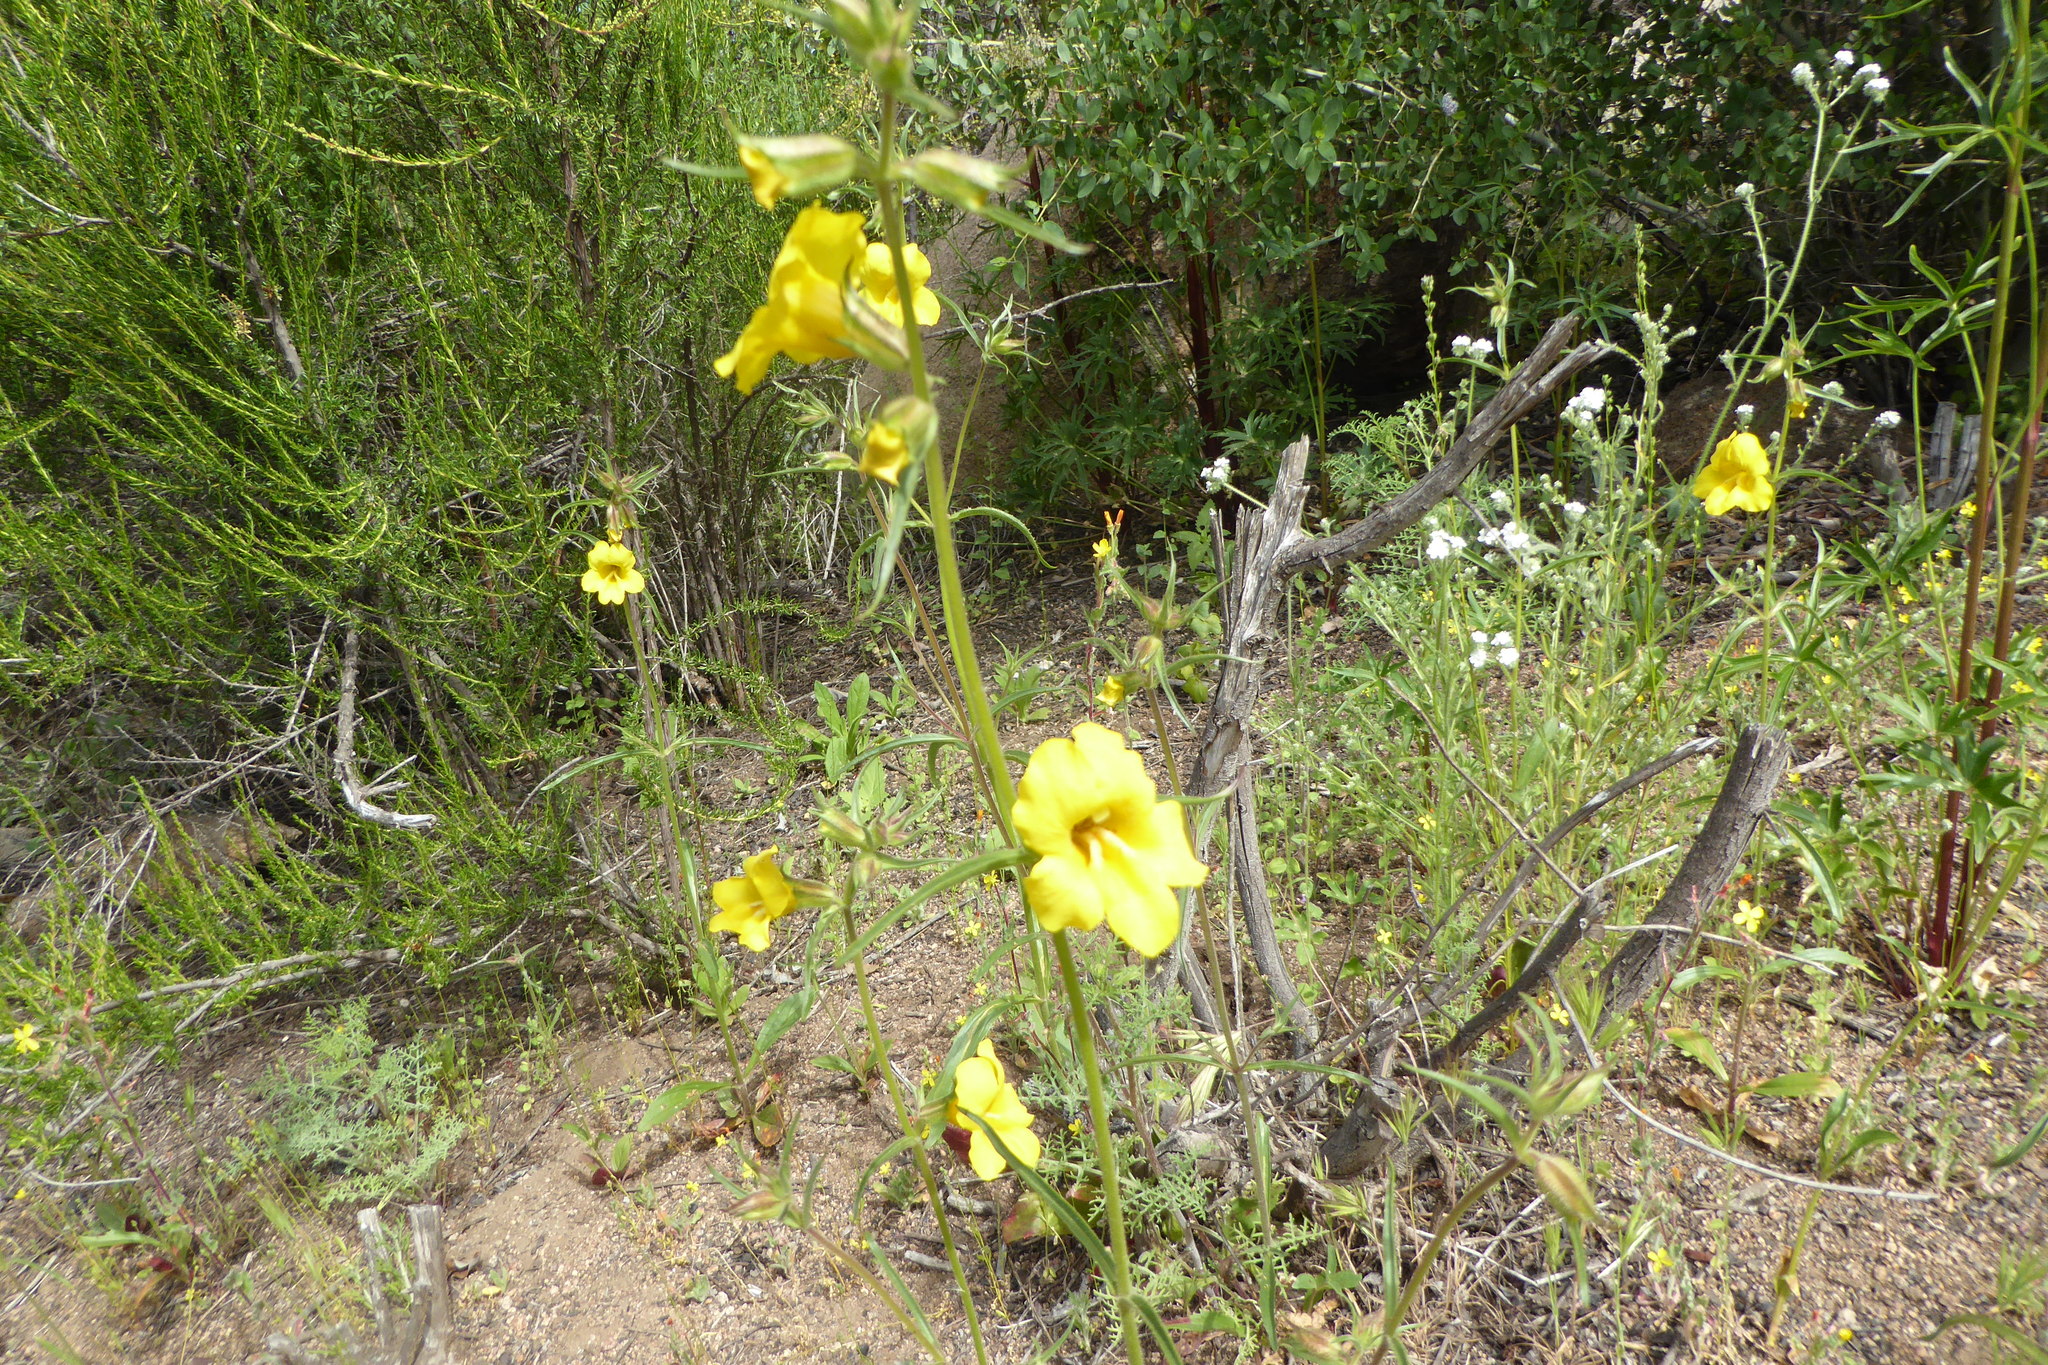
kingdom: Plantae
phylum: Tracheophyta
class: Magnoliopsida
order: Lamiales
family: Phrymaceae
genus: Diplacus
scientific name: Diplacus brevipes
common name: Wide-throat yellow monkey-flower
